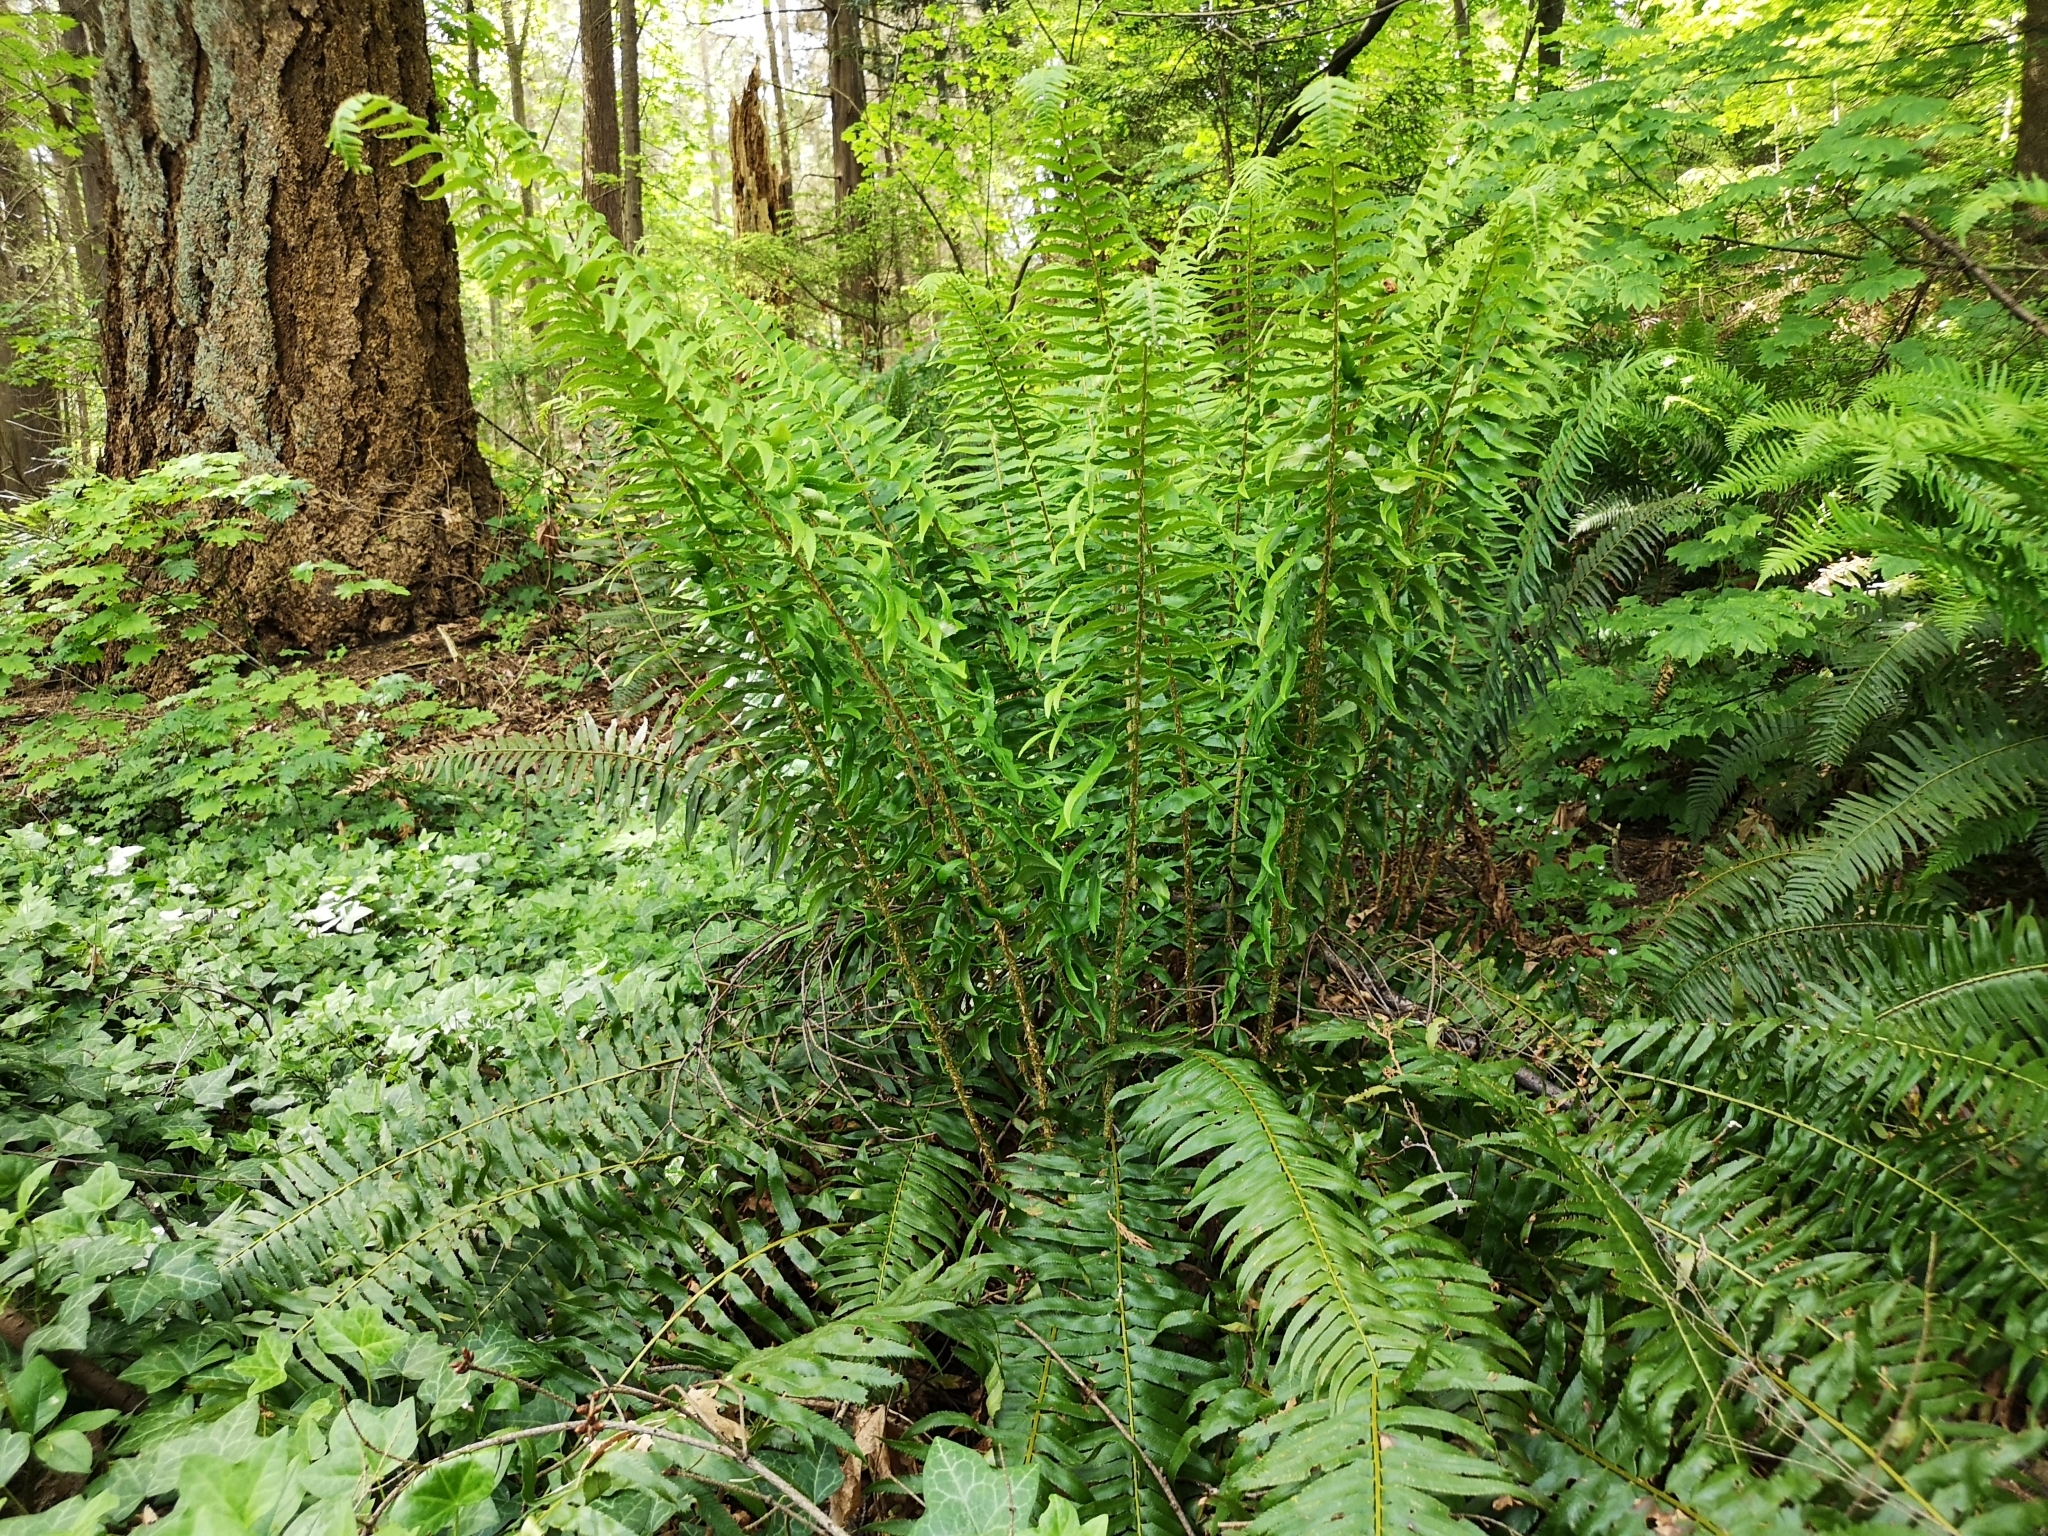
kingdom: Plantae
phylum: Tracheophyta
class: Polypodiopsida
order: Polypodiales
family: Dryopteridaceae
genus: Polystichum
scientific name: Polystichum munitum
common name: Western sword-fern
